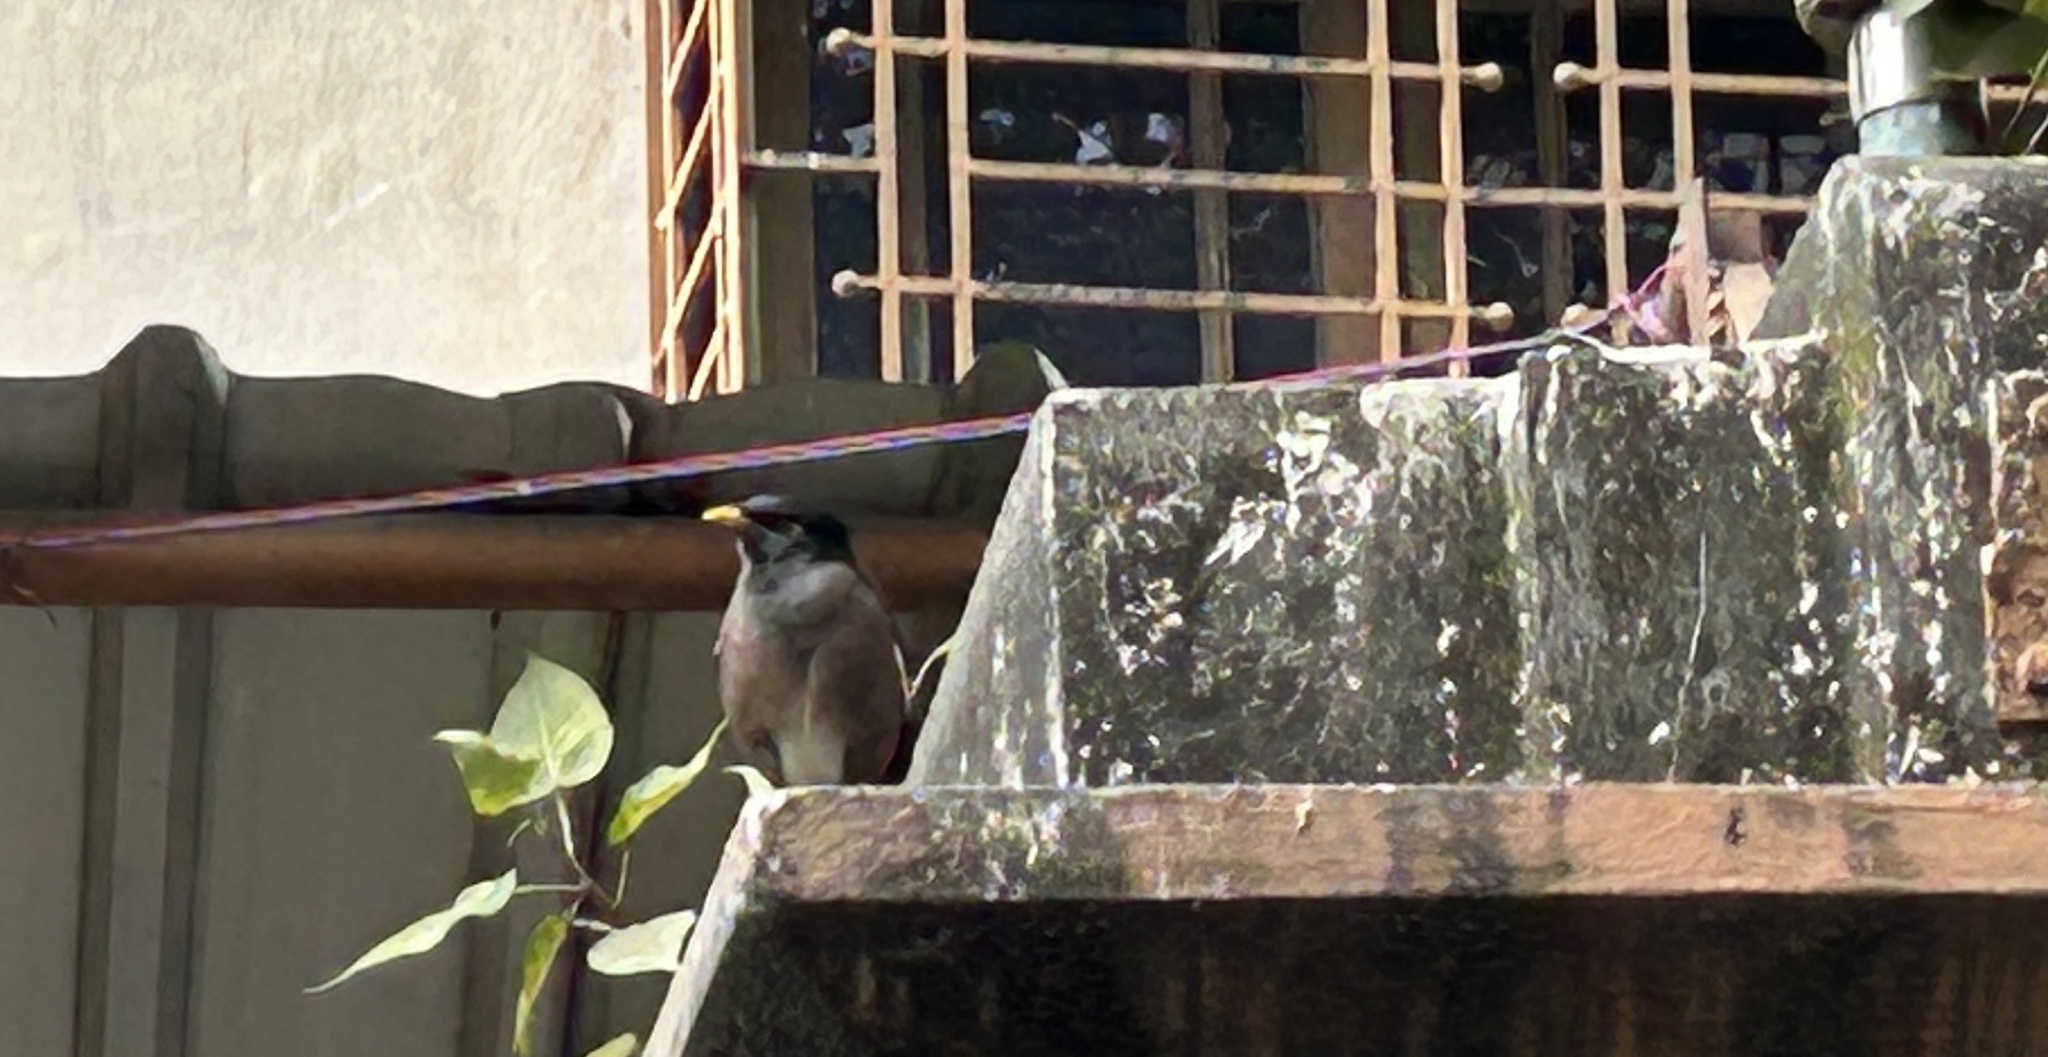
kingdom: Animalia
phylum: Chordata
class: Aves
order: Passeriformes
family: Sturnidae
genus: Acridotheres
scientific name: Acridotheres tristis
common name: Common myna
